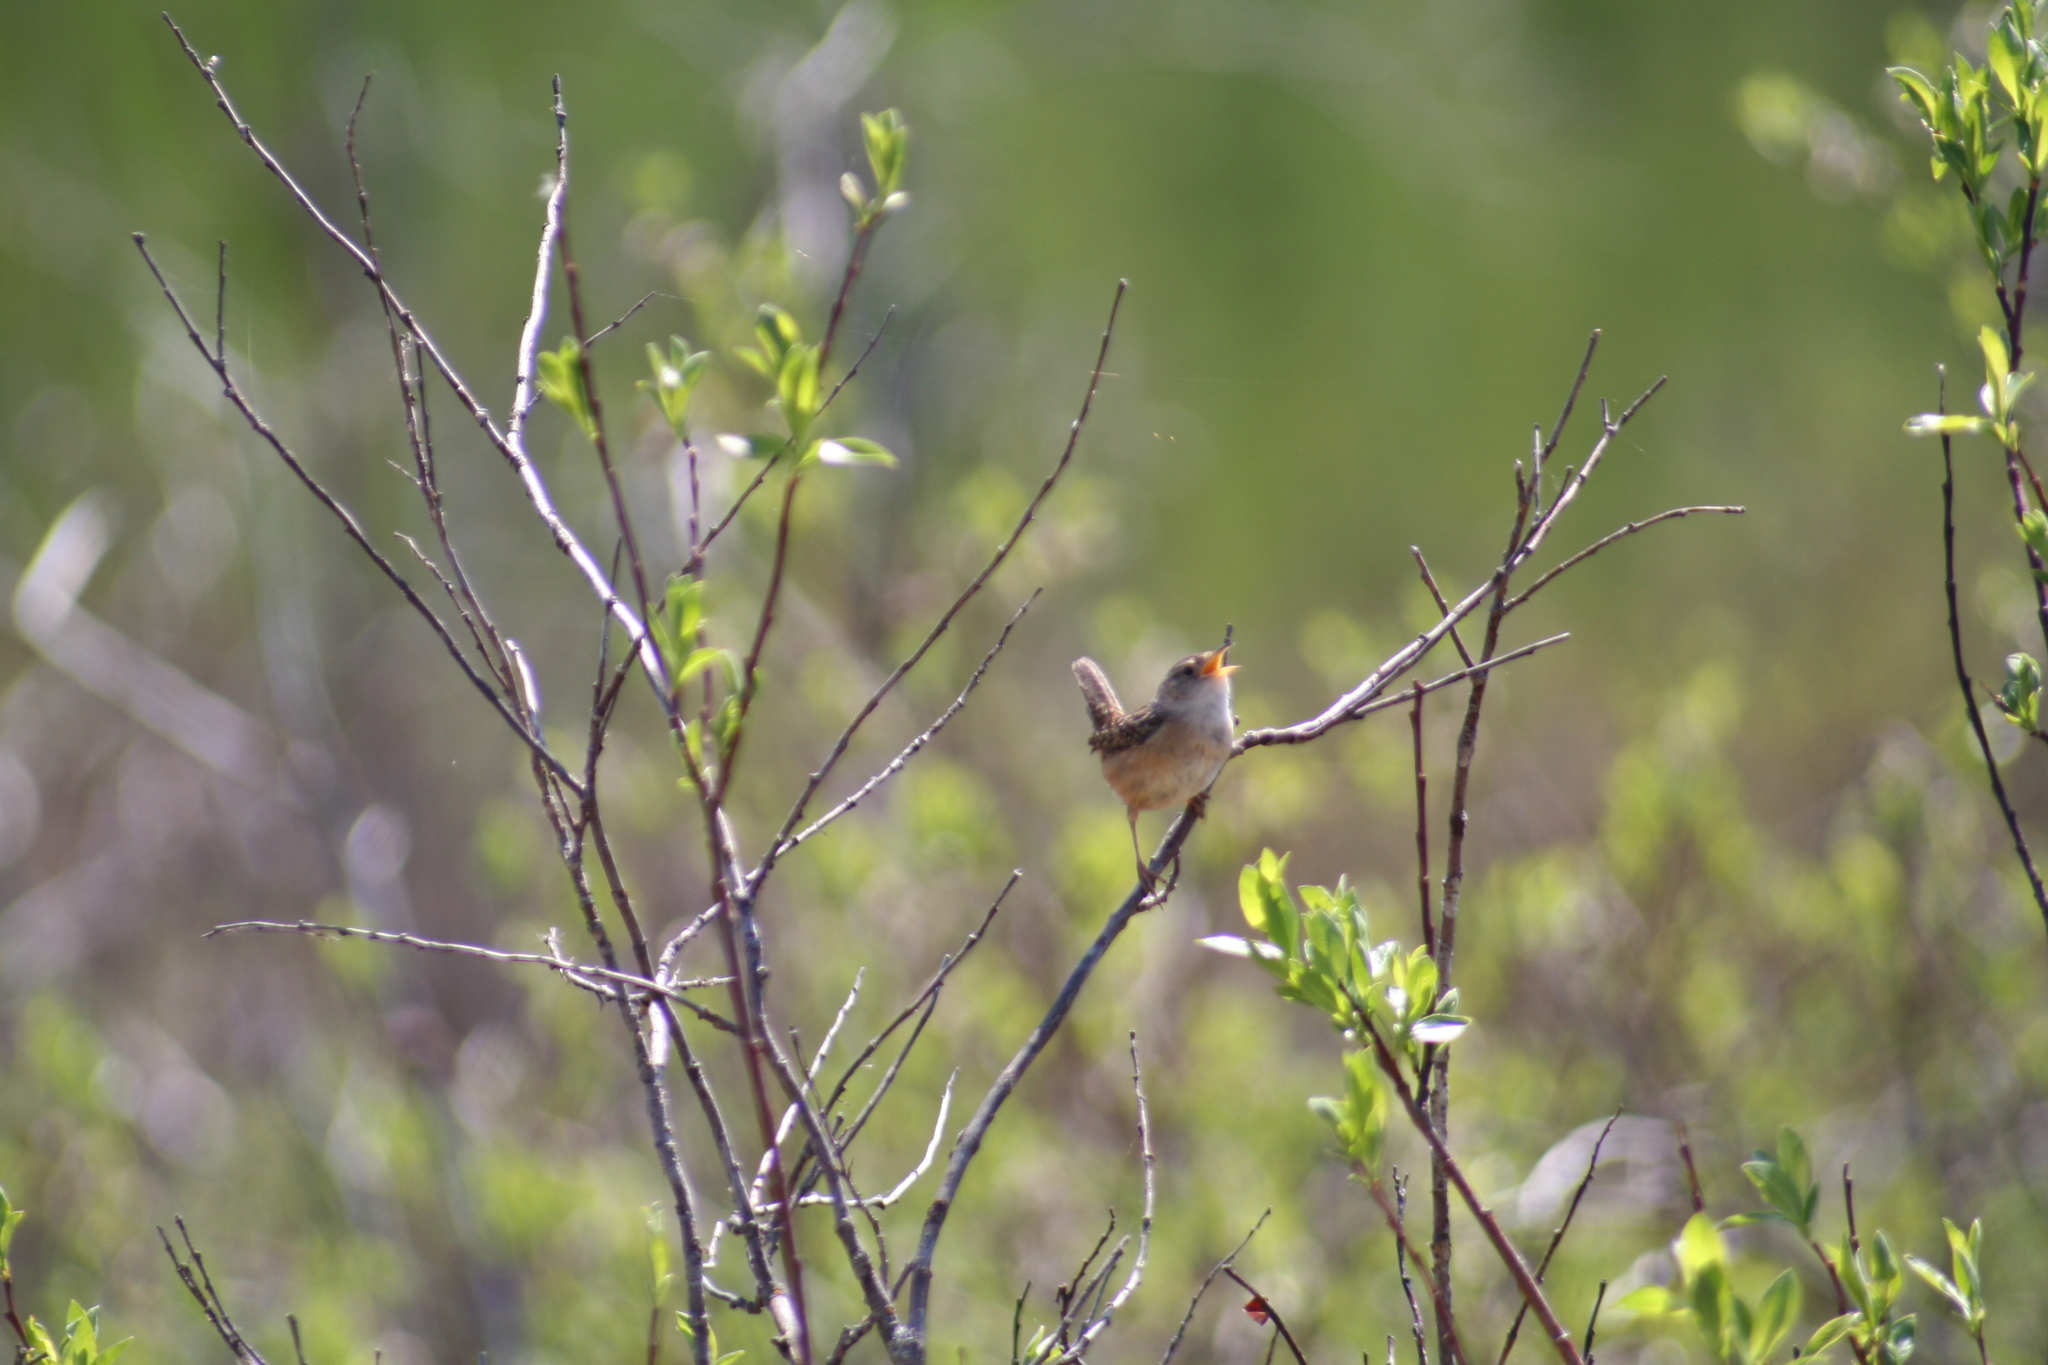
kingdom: Animalia
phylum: Chordata
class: Aves
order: Passeriformes
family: Troglodytidae
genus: Cistothorus
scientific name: Cistothorus platensis
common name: Sedge wren
